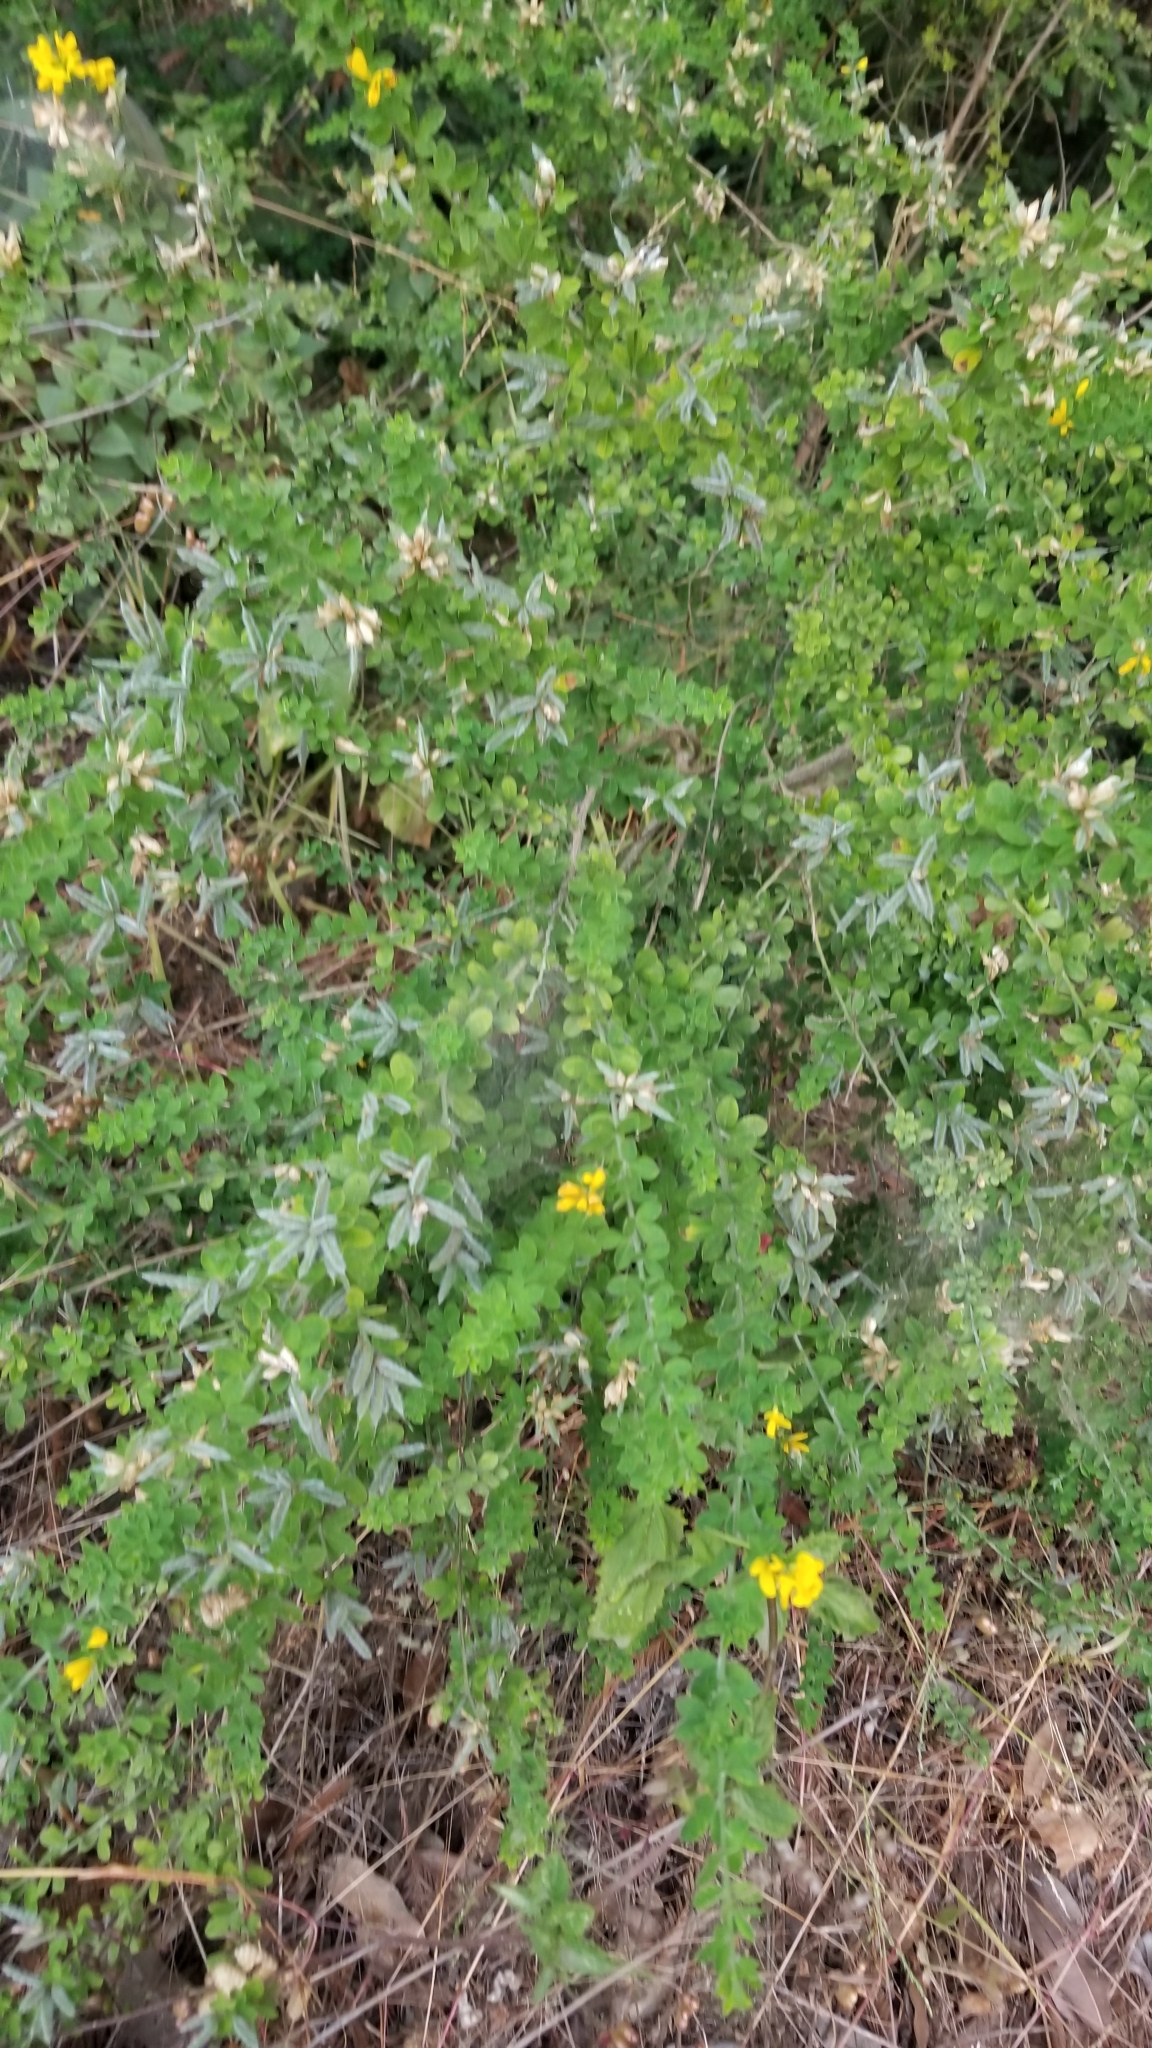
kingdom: Plantae
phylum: Tracheophyta
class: Magnoliopsida
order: Fabales
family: Fabaceae
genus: Genista
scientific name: Genista monspessulana
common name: Montpellier broom
